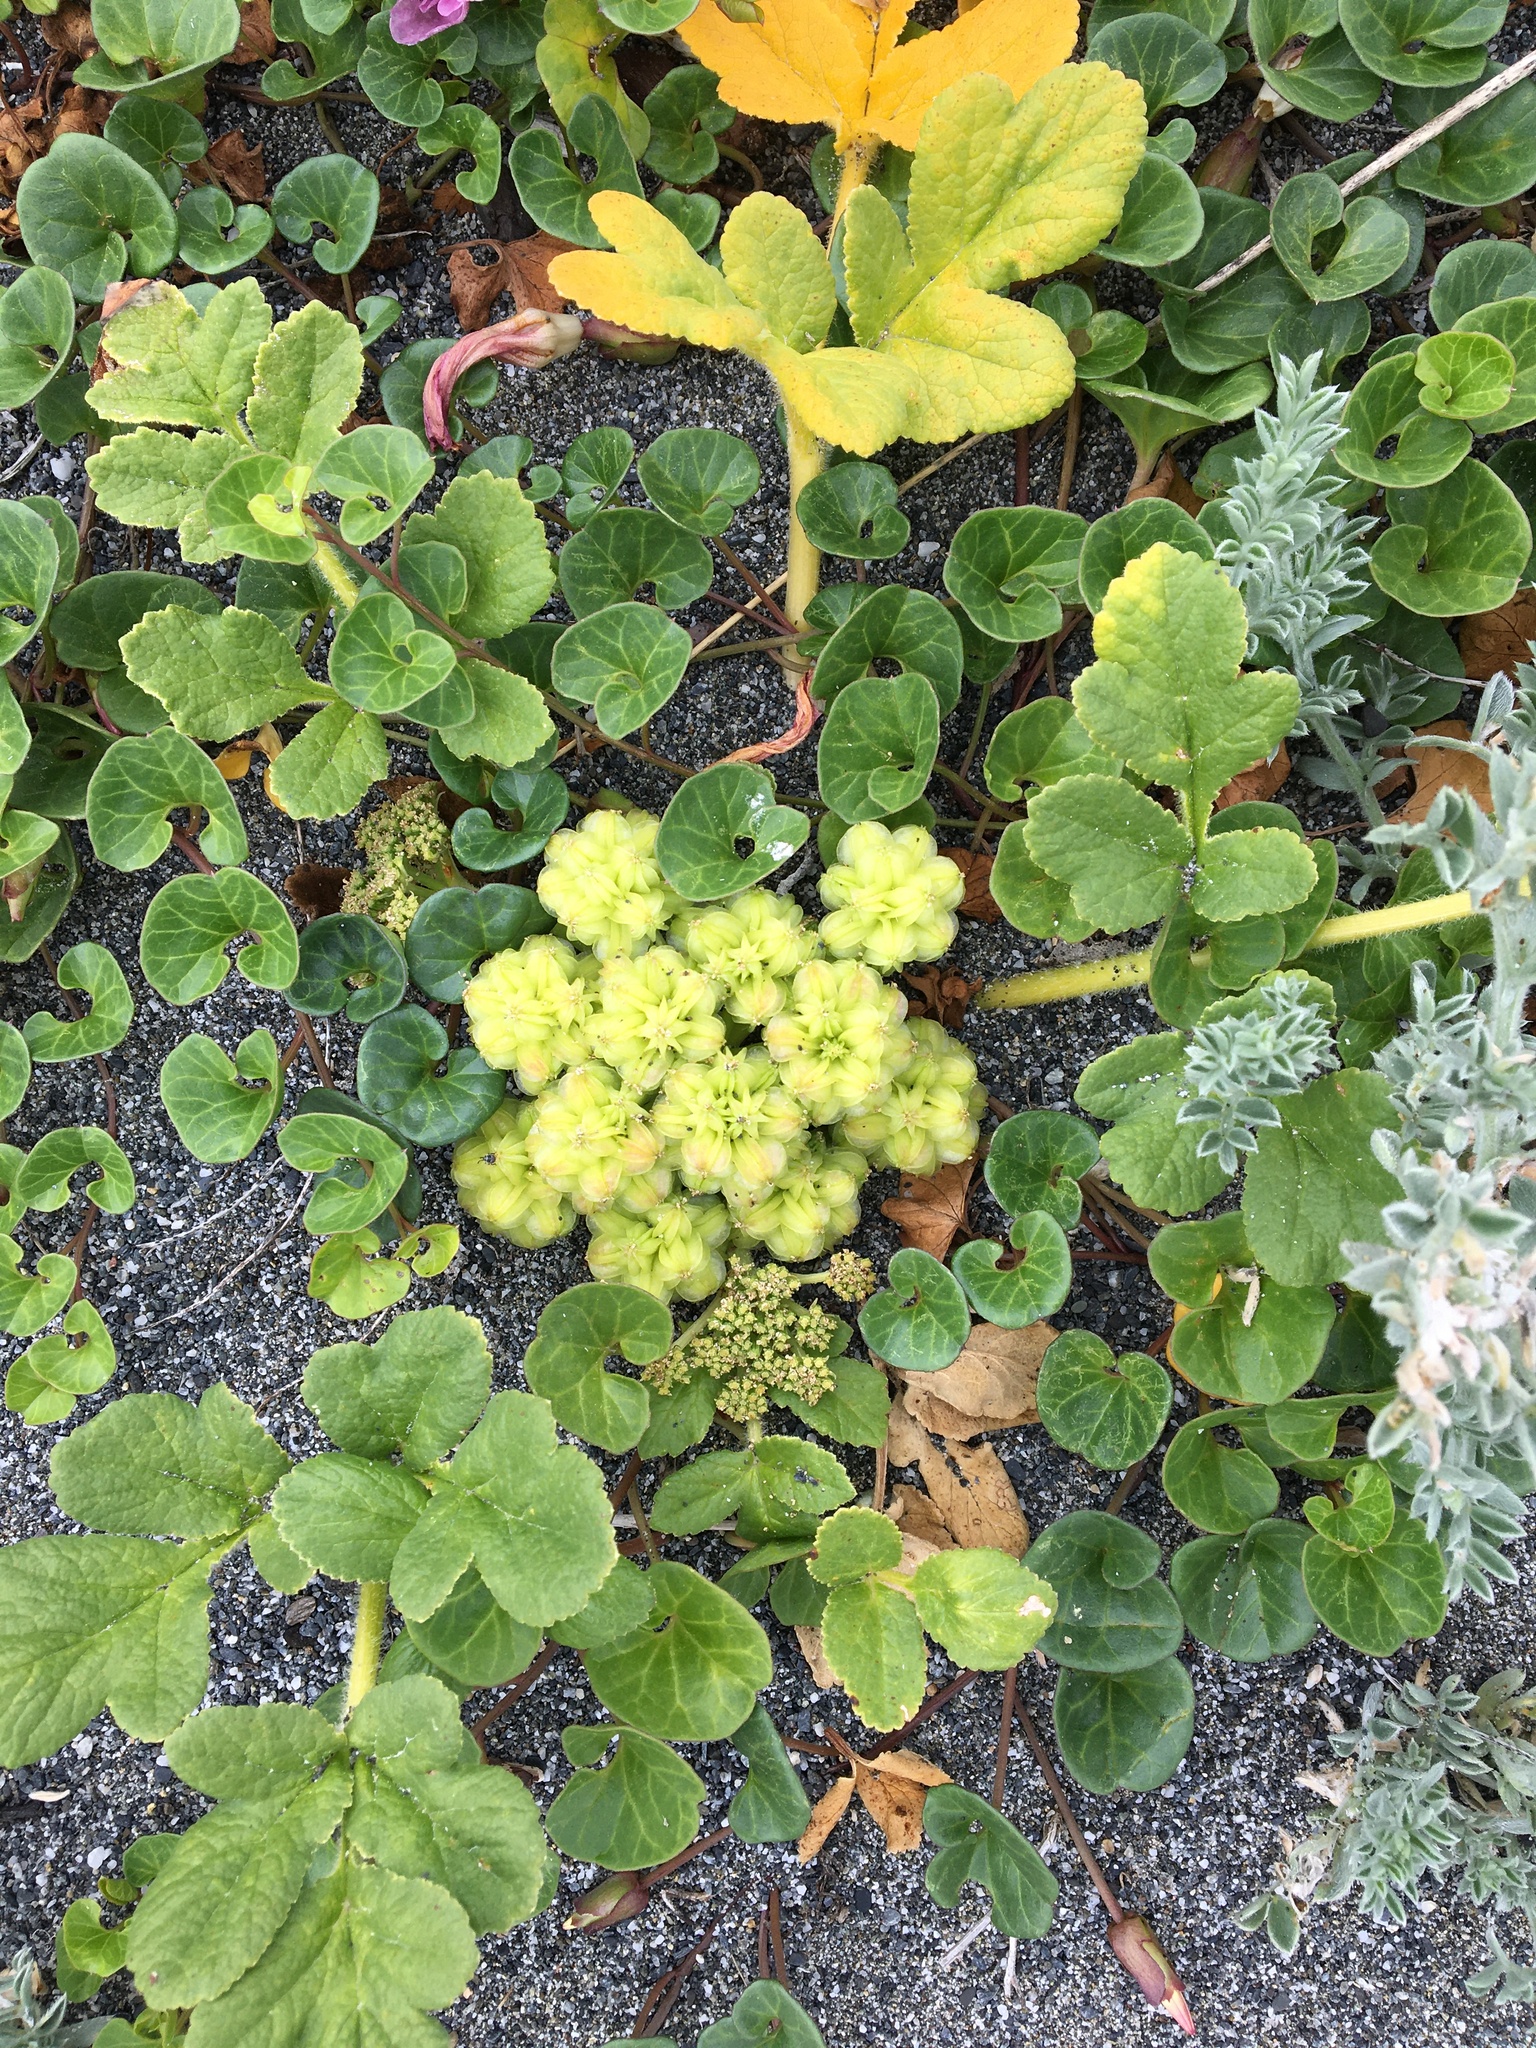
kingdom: Plantae
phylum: Tracheophyta
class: Magnoliopsida
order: Apiales
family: Apiaceae
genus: Angelica
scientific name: Angelica leiocarpa
